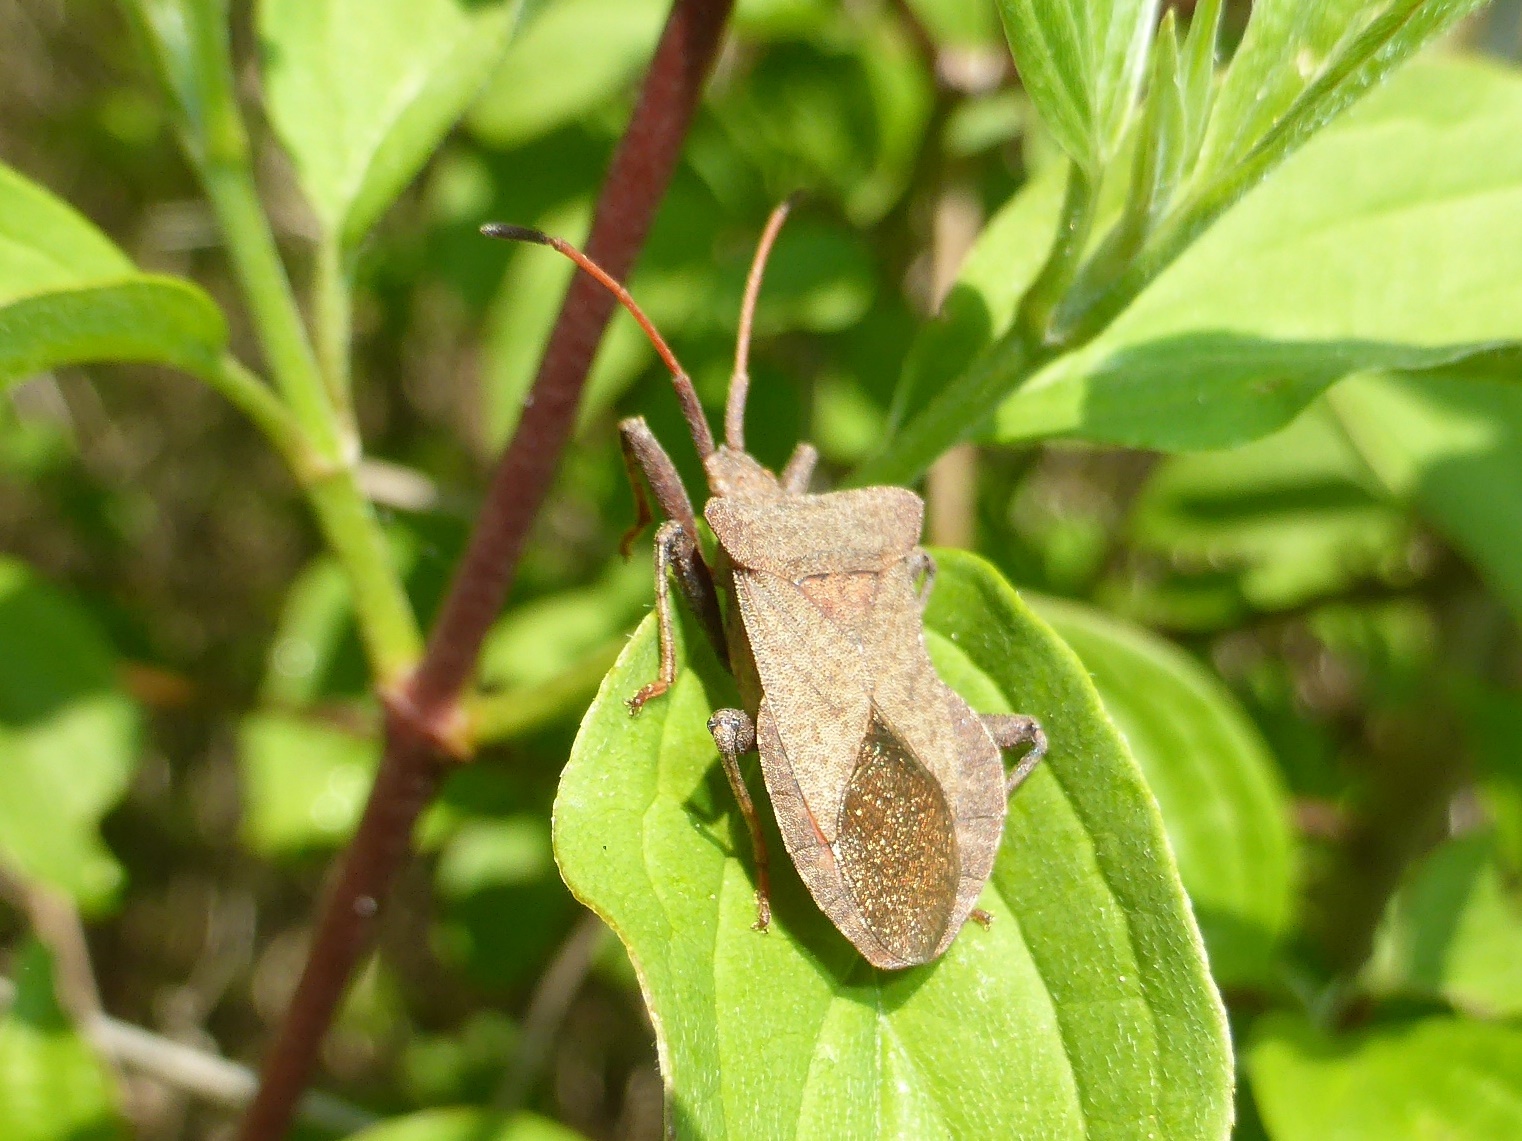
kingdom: Animalia
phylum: Arthropoda
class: Insecta
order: Hemiptera
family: Coreidae
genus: Coreus
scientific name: Coreus marginatus
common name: Dock bug
